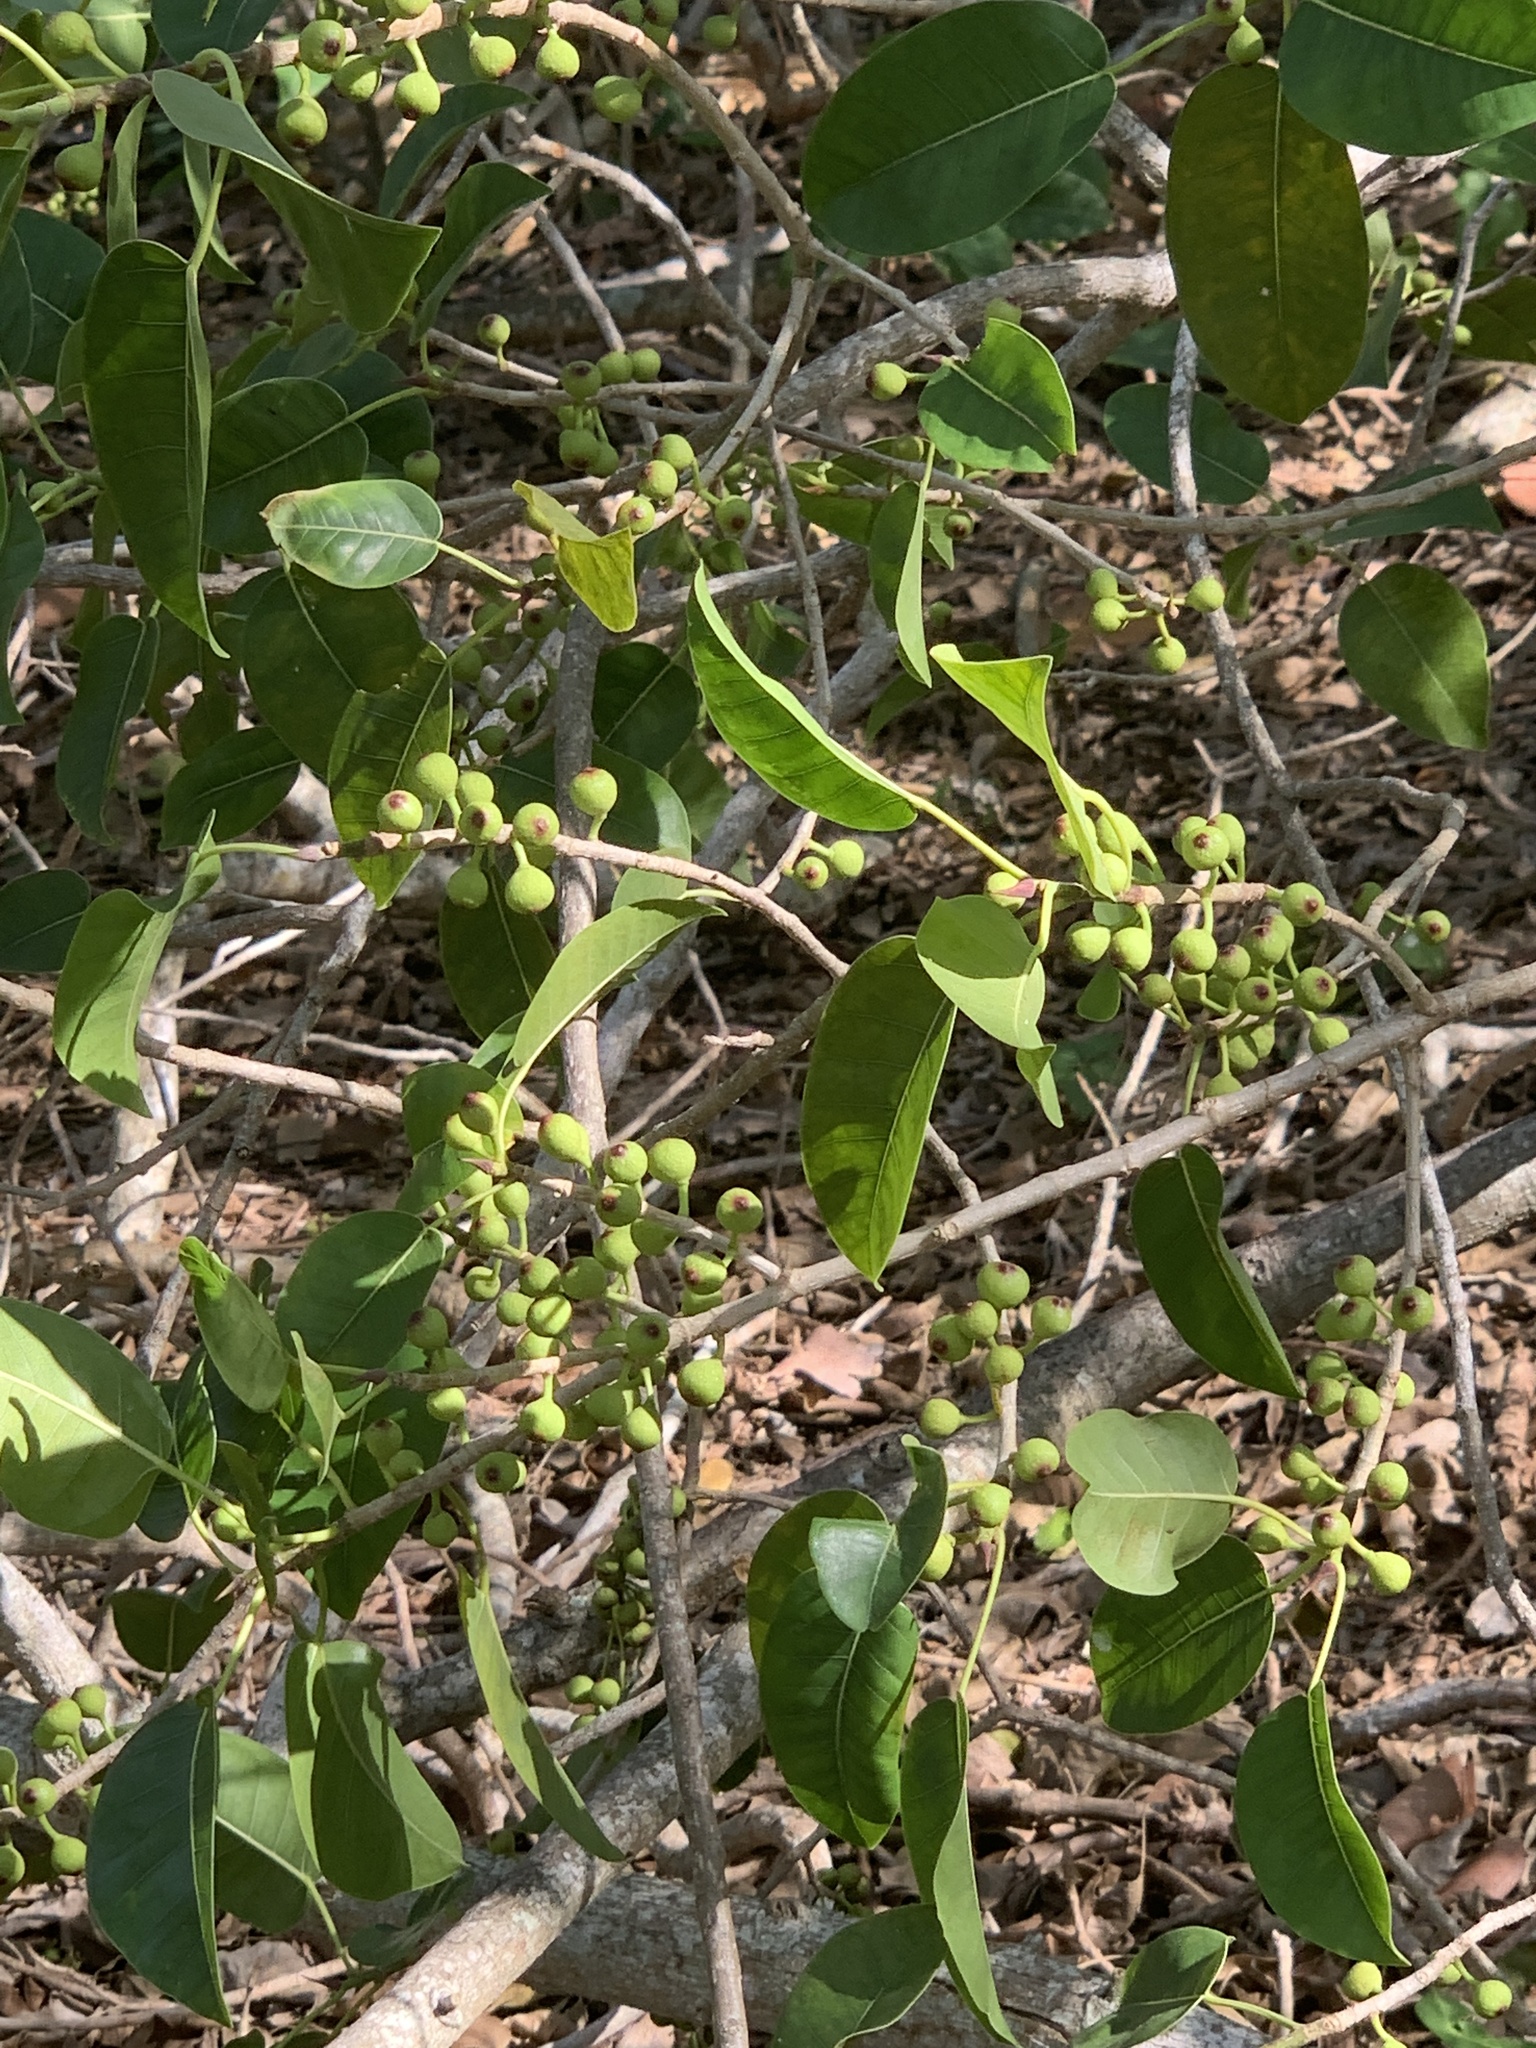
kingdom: Plantae
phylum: Tracheophyta
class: Magnoliopsida
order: Rosales
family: Moraceae
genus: Ficus
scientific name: Ficus citrifolia
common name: Strangler fig
